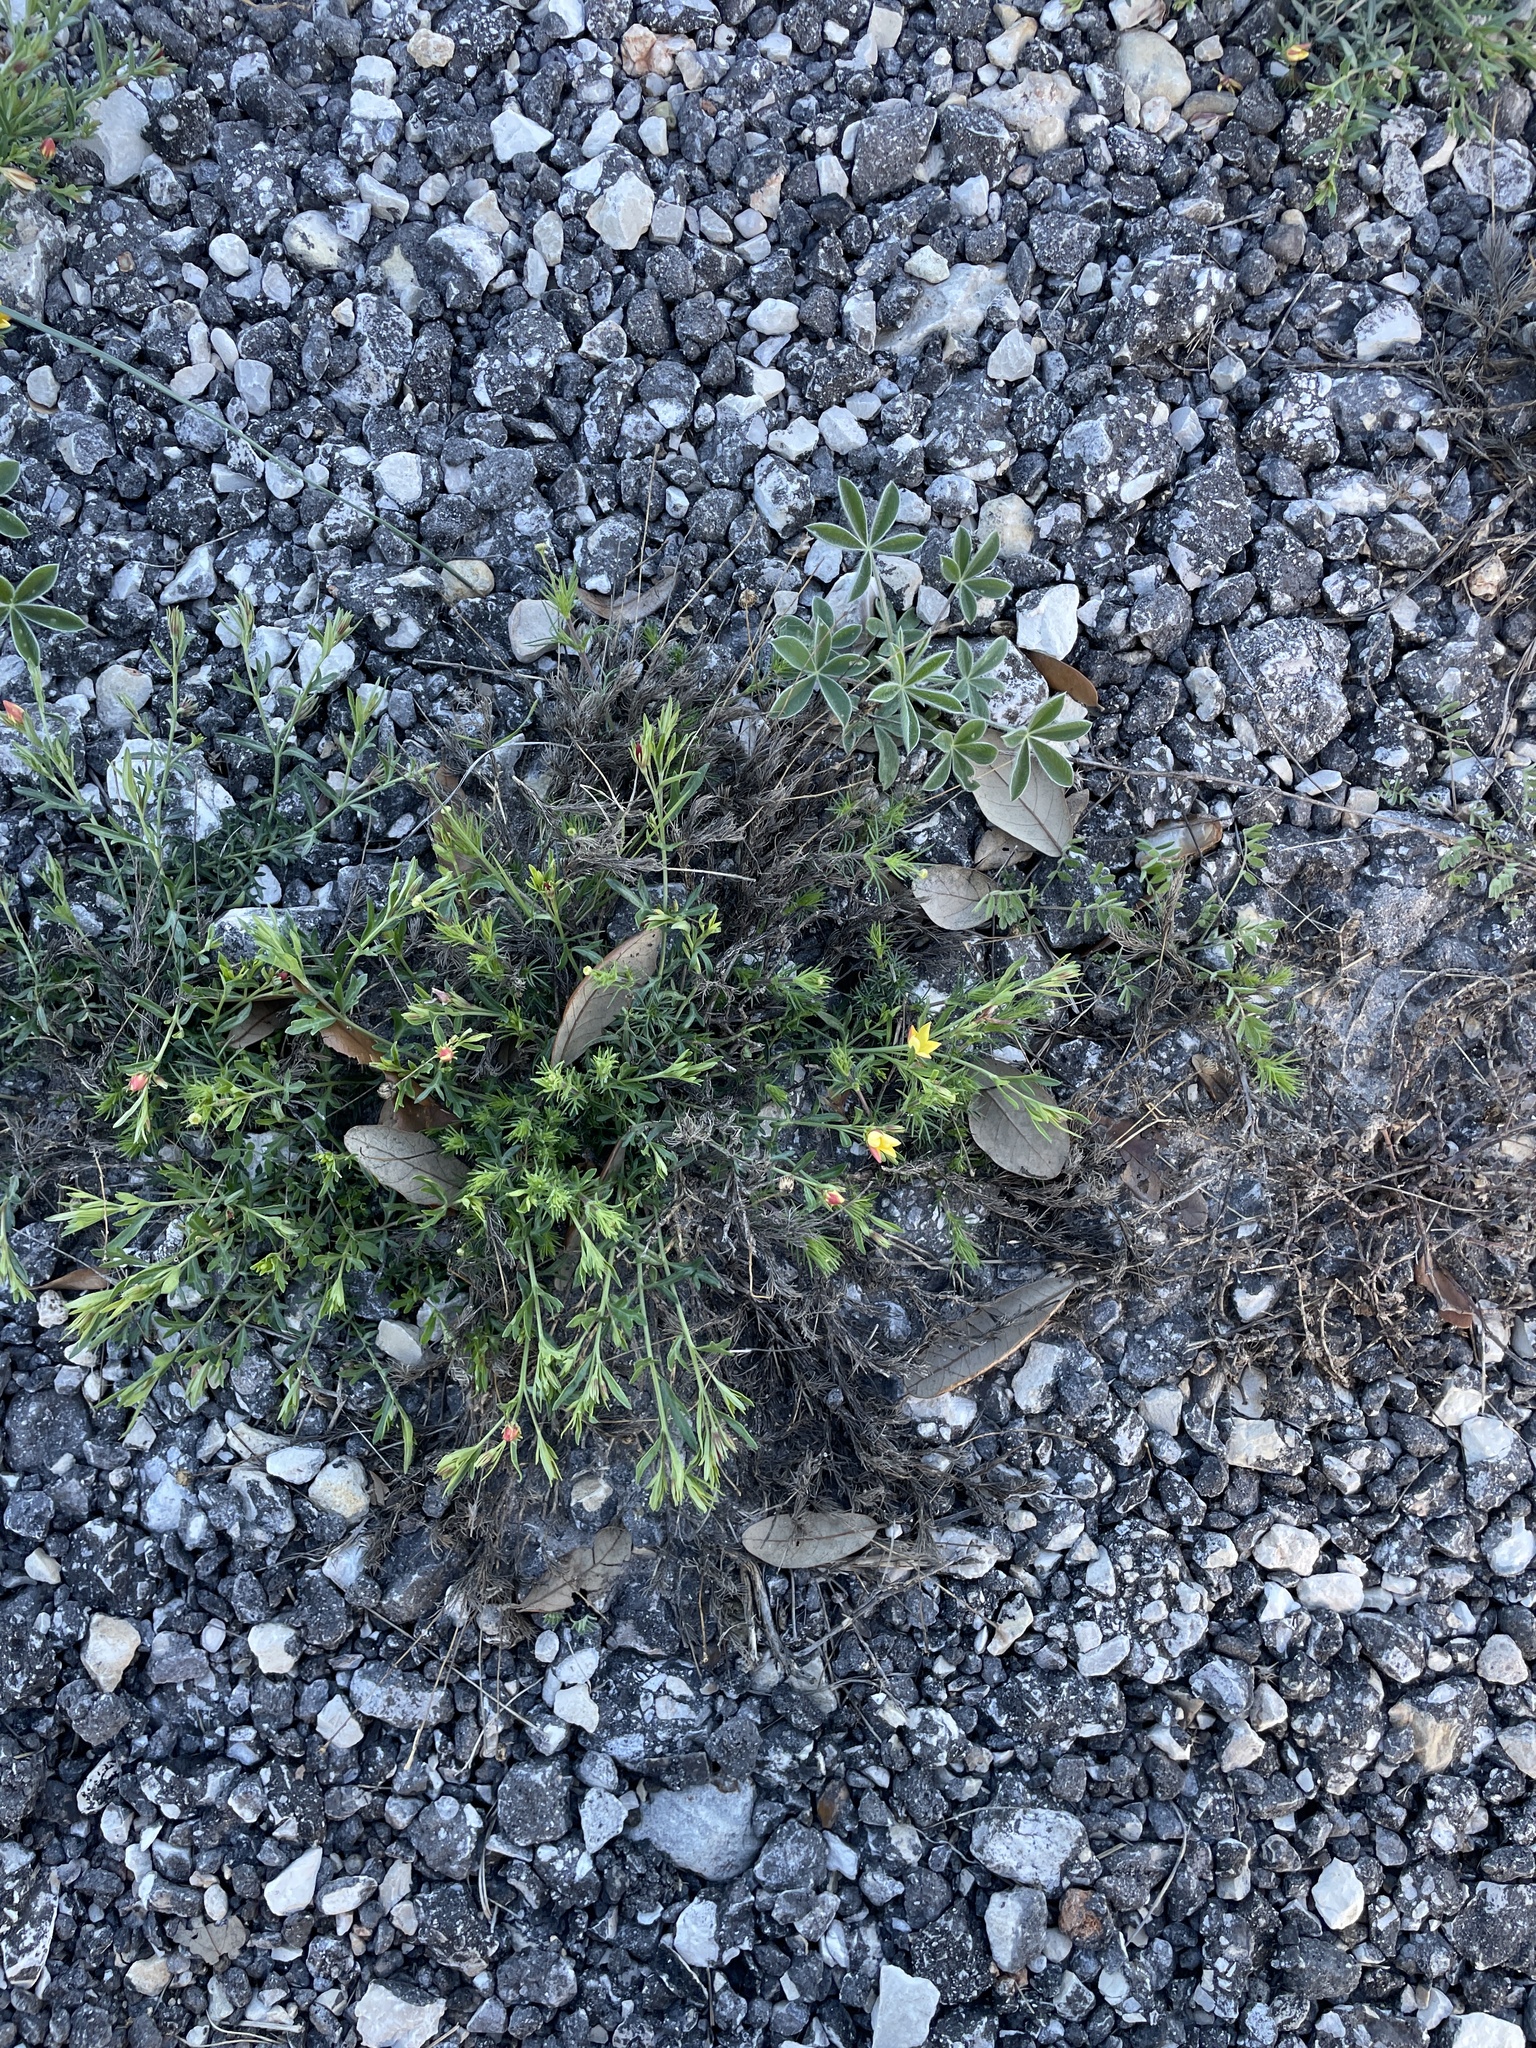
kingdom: Plantae
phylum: Tracheophyta
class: Magnoliopsida
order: Lamiales
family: Oleaceae
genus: Menodora
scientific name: Menodora heterophylla
